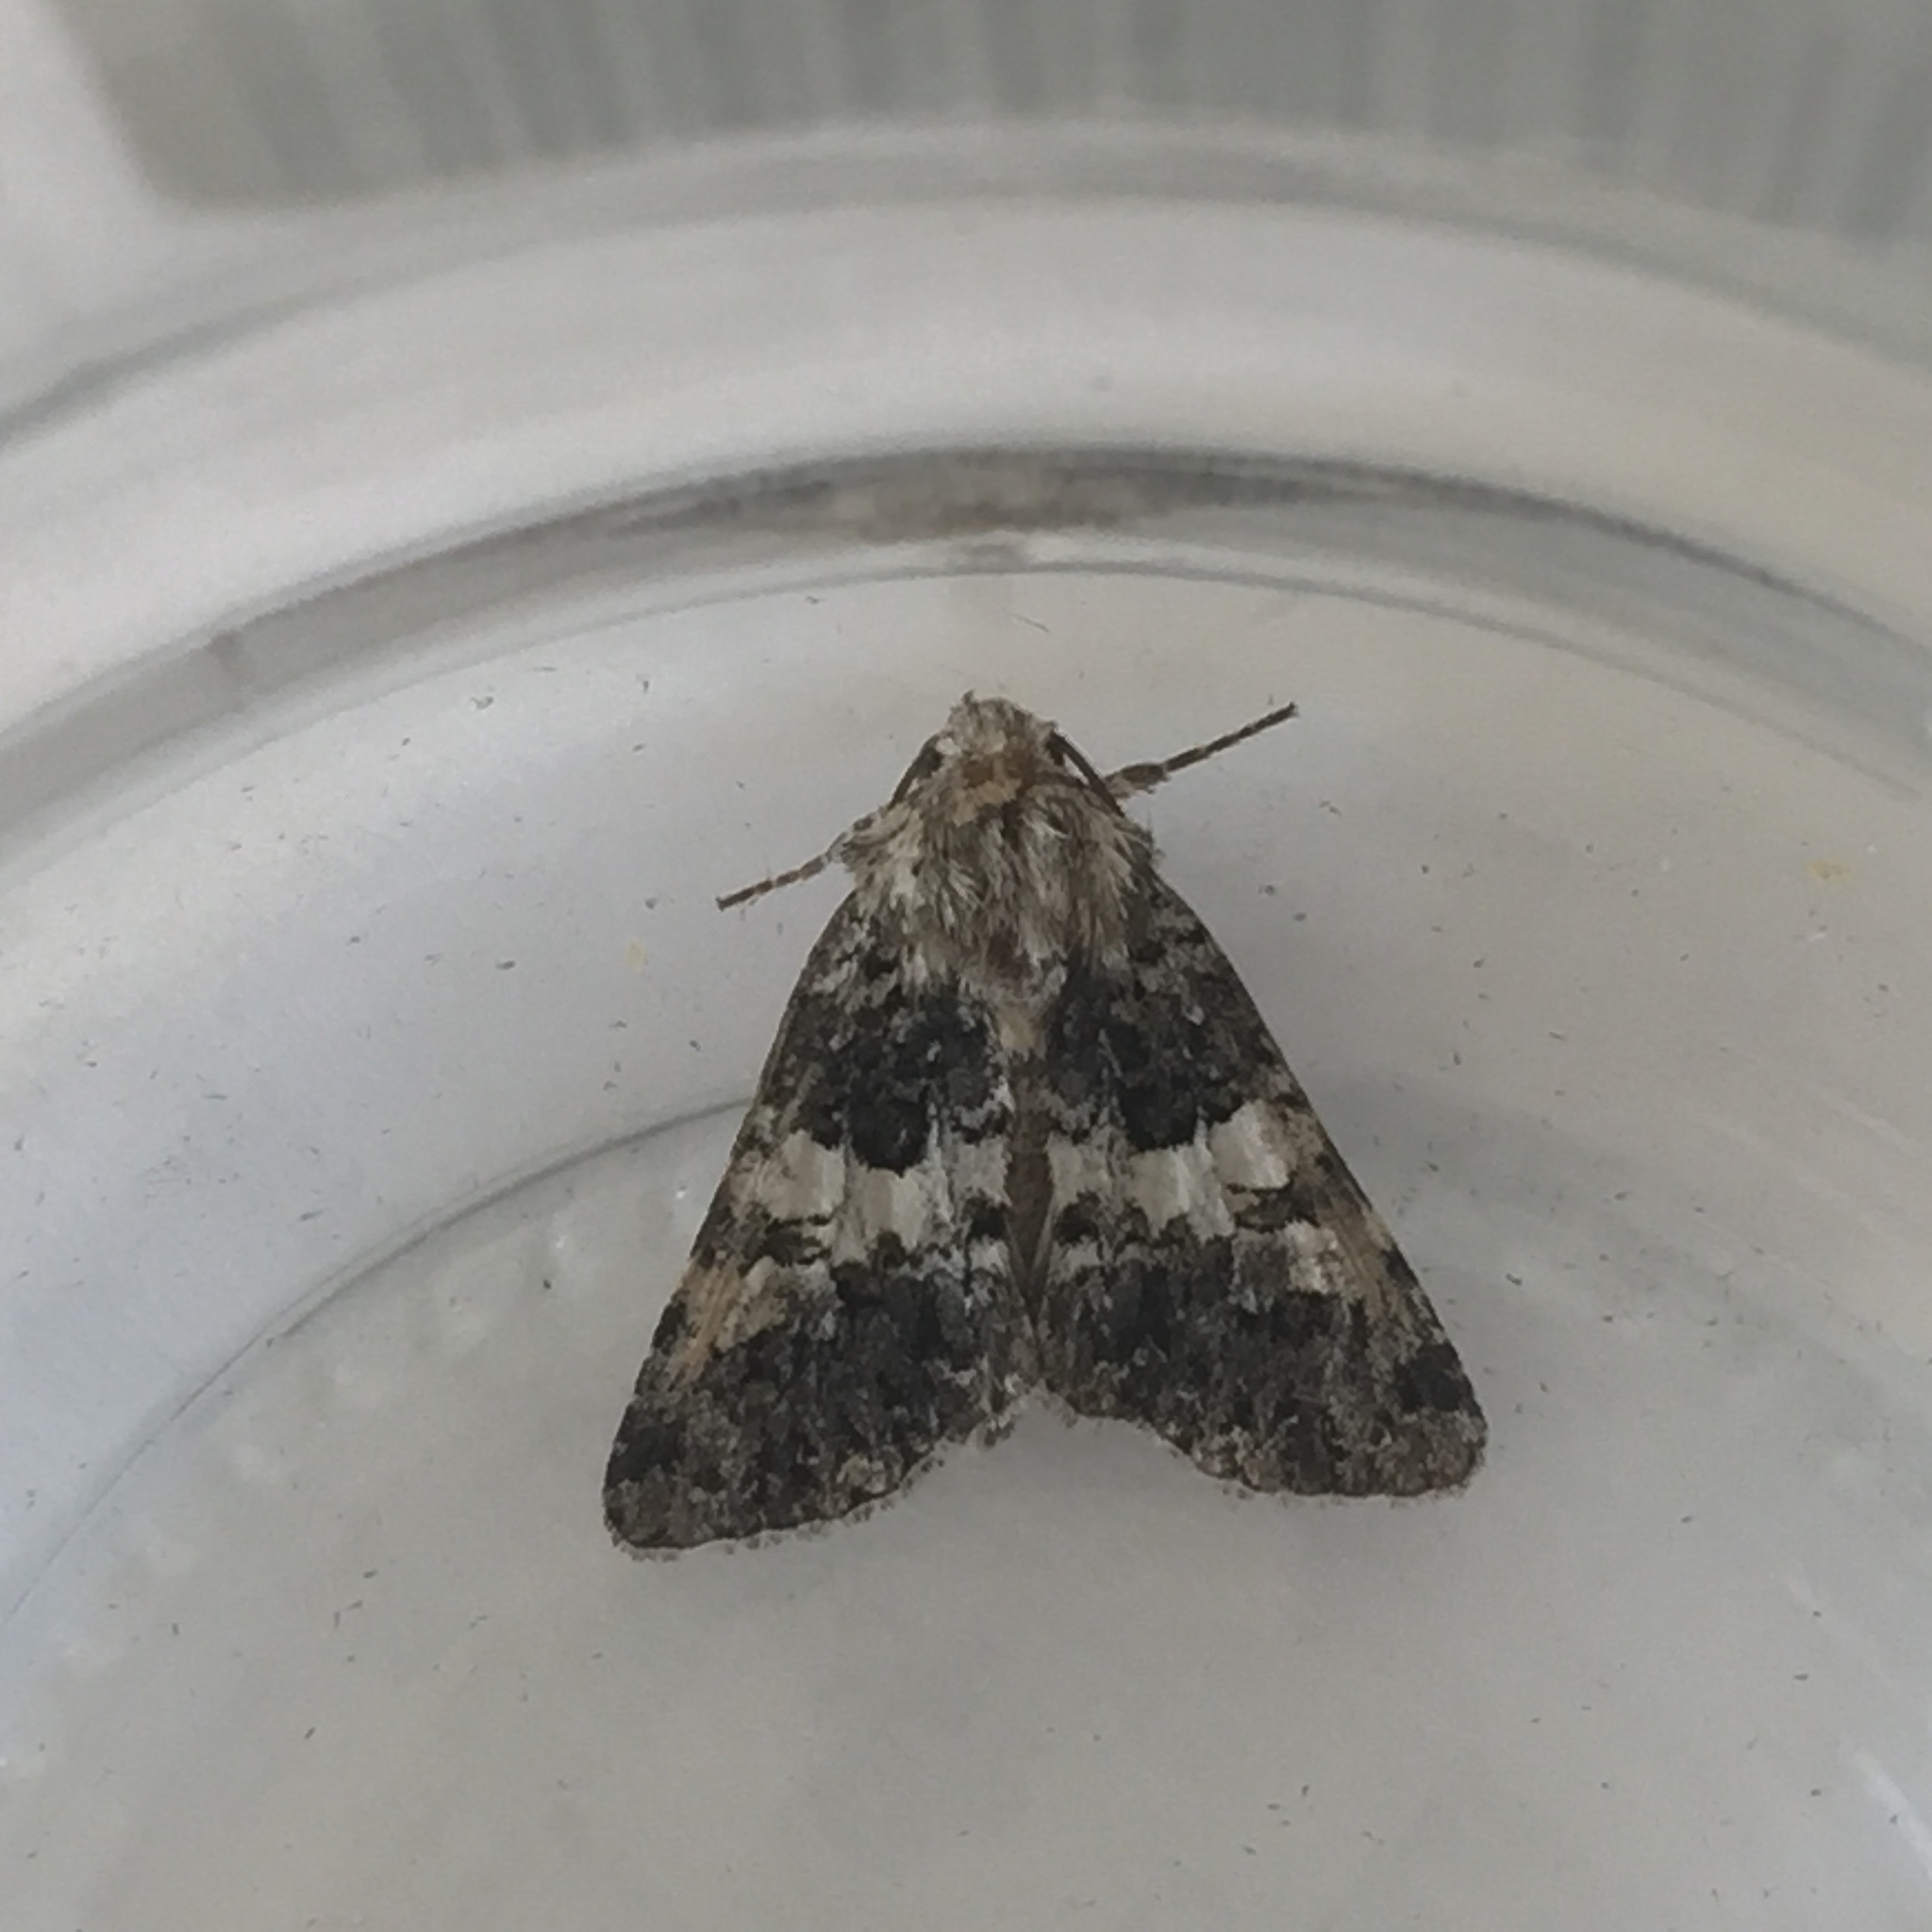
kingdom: Animalia
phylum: Arthropoda
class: Insecta
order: Lepidoptera
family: Noctuidae
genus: Hadena
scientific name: Hadena compta
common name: Varied coronet
